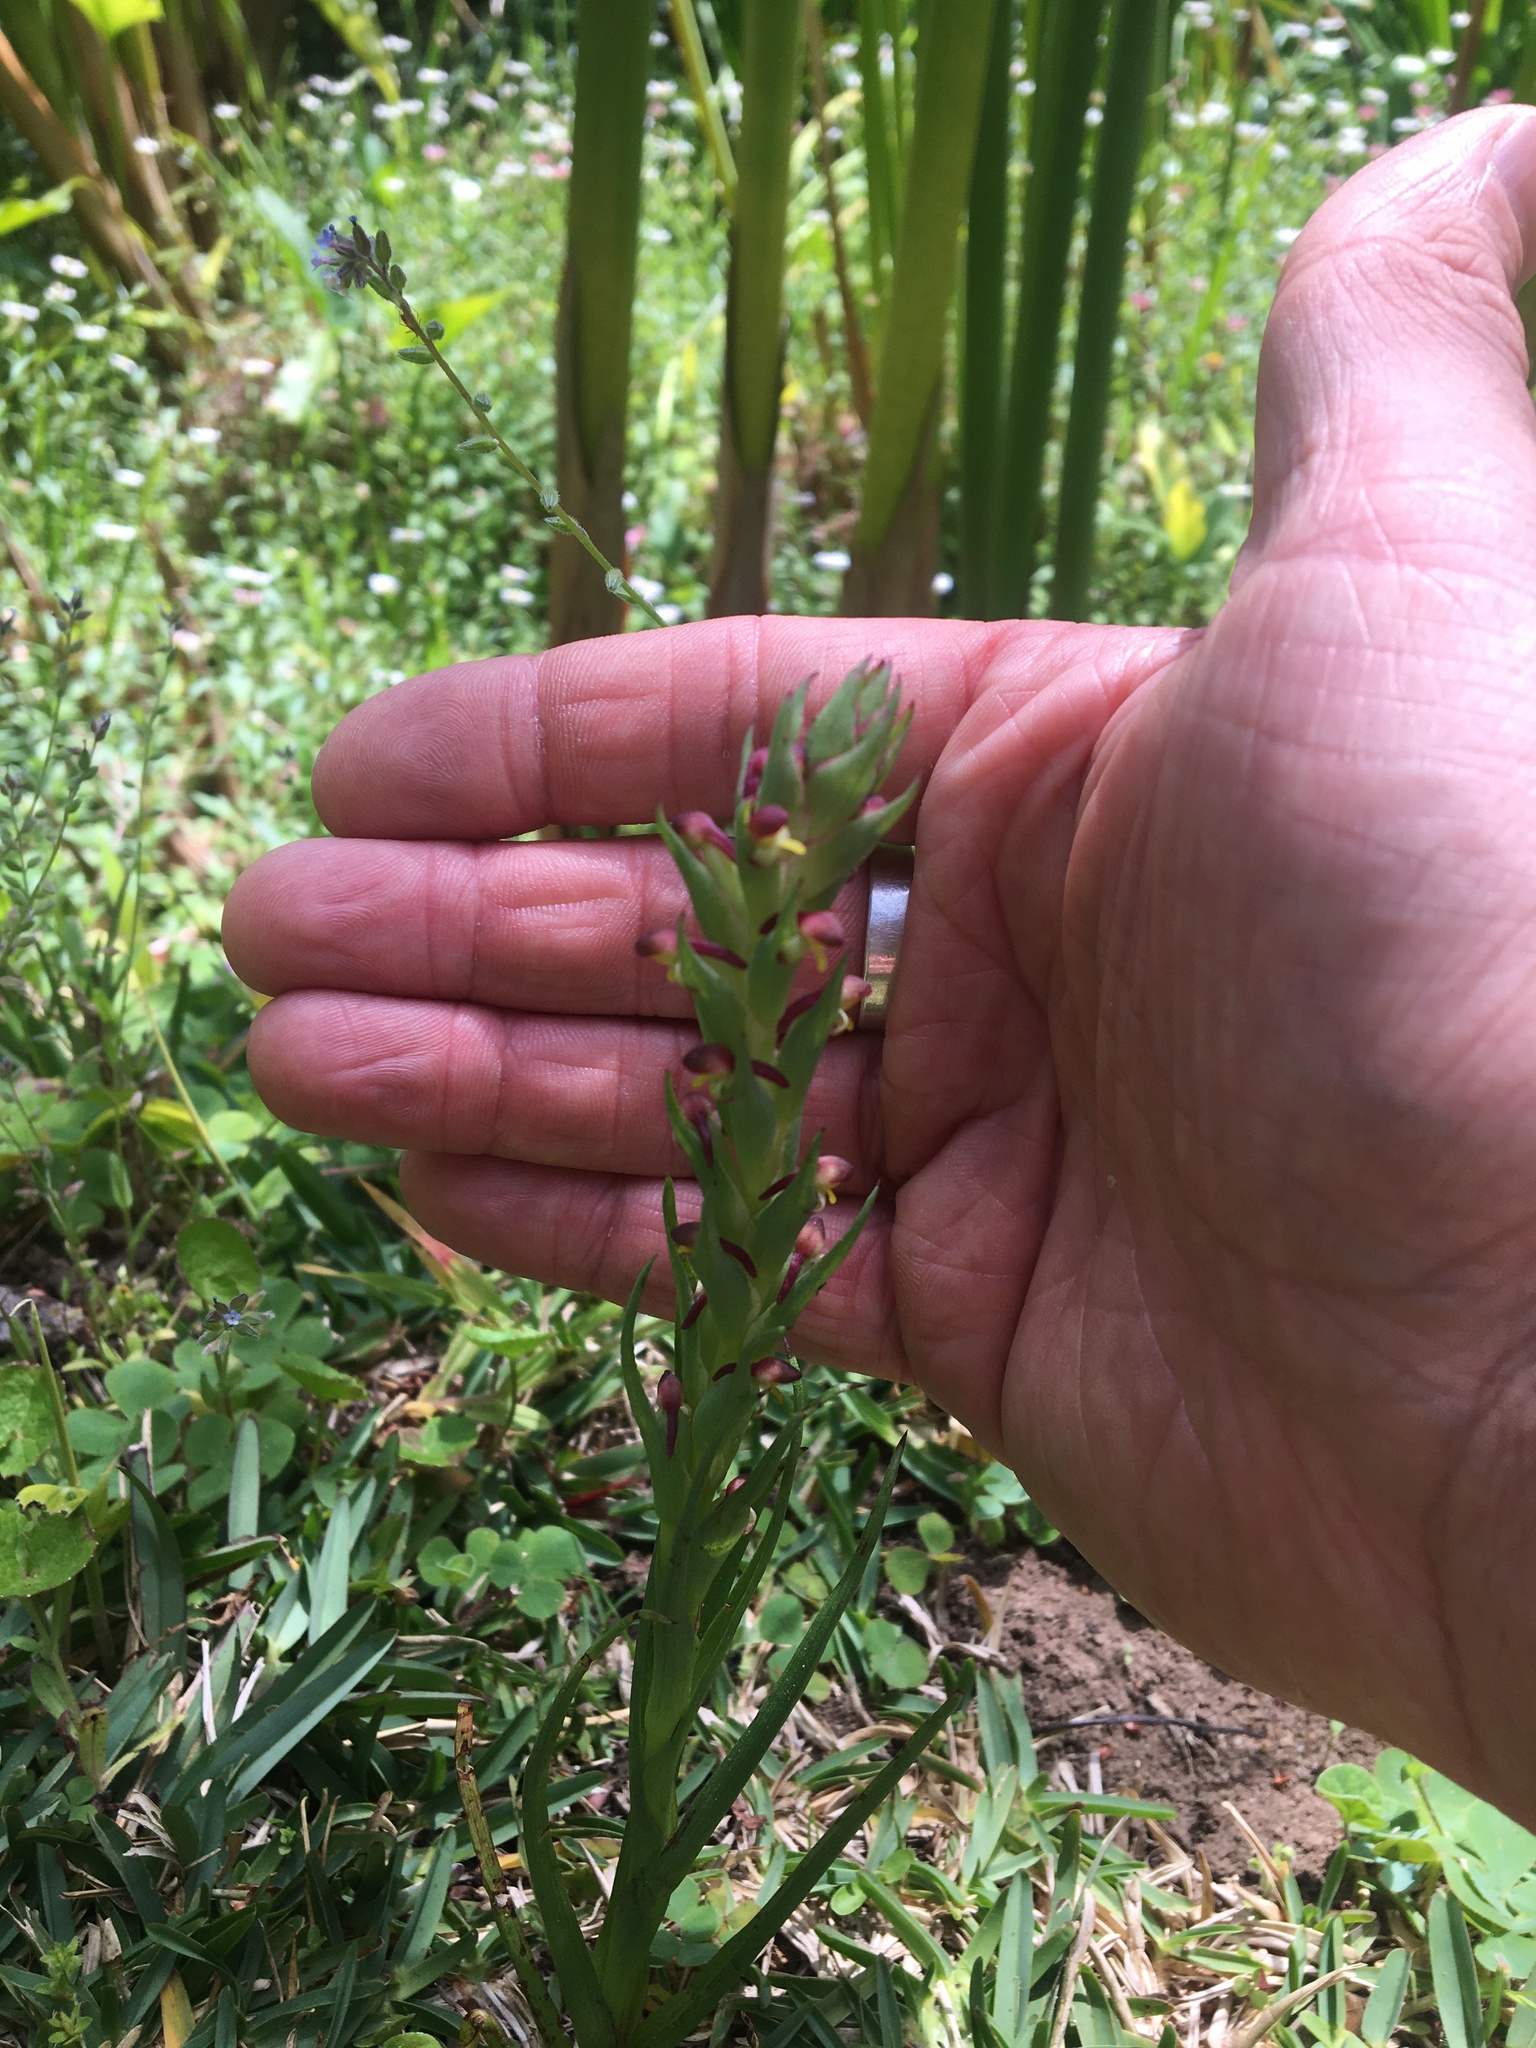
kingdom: Plantae
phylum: Tracheophyta
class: Liliopsida
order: Asparagales
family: Orchidaceae
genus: Disa
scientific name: Disa bracteata
